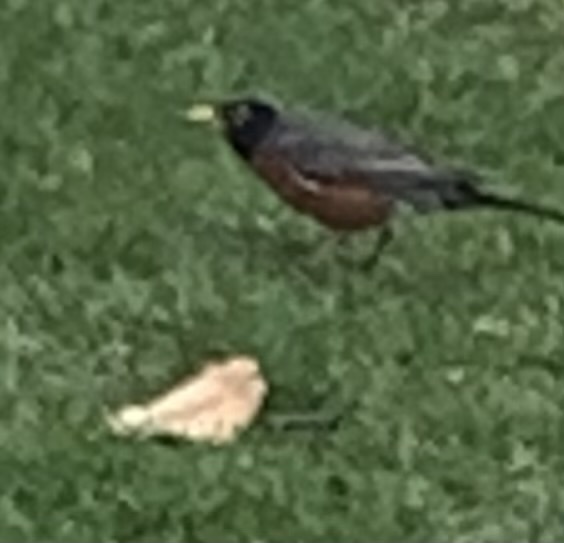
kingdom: Animalia
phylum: Chordata
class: Aves
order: Passeriformes
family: Turdidae
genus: Turdus
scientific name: Turdus migratorius
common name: American robin
